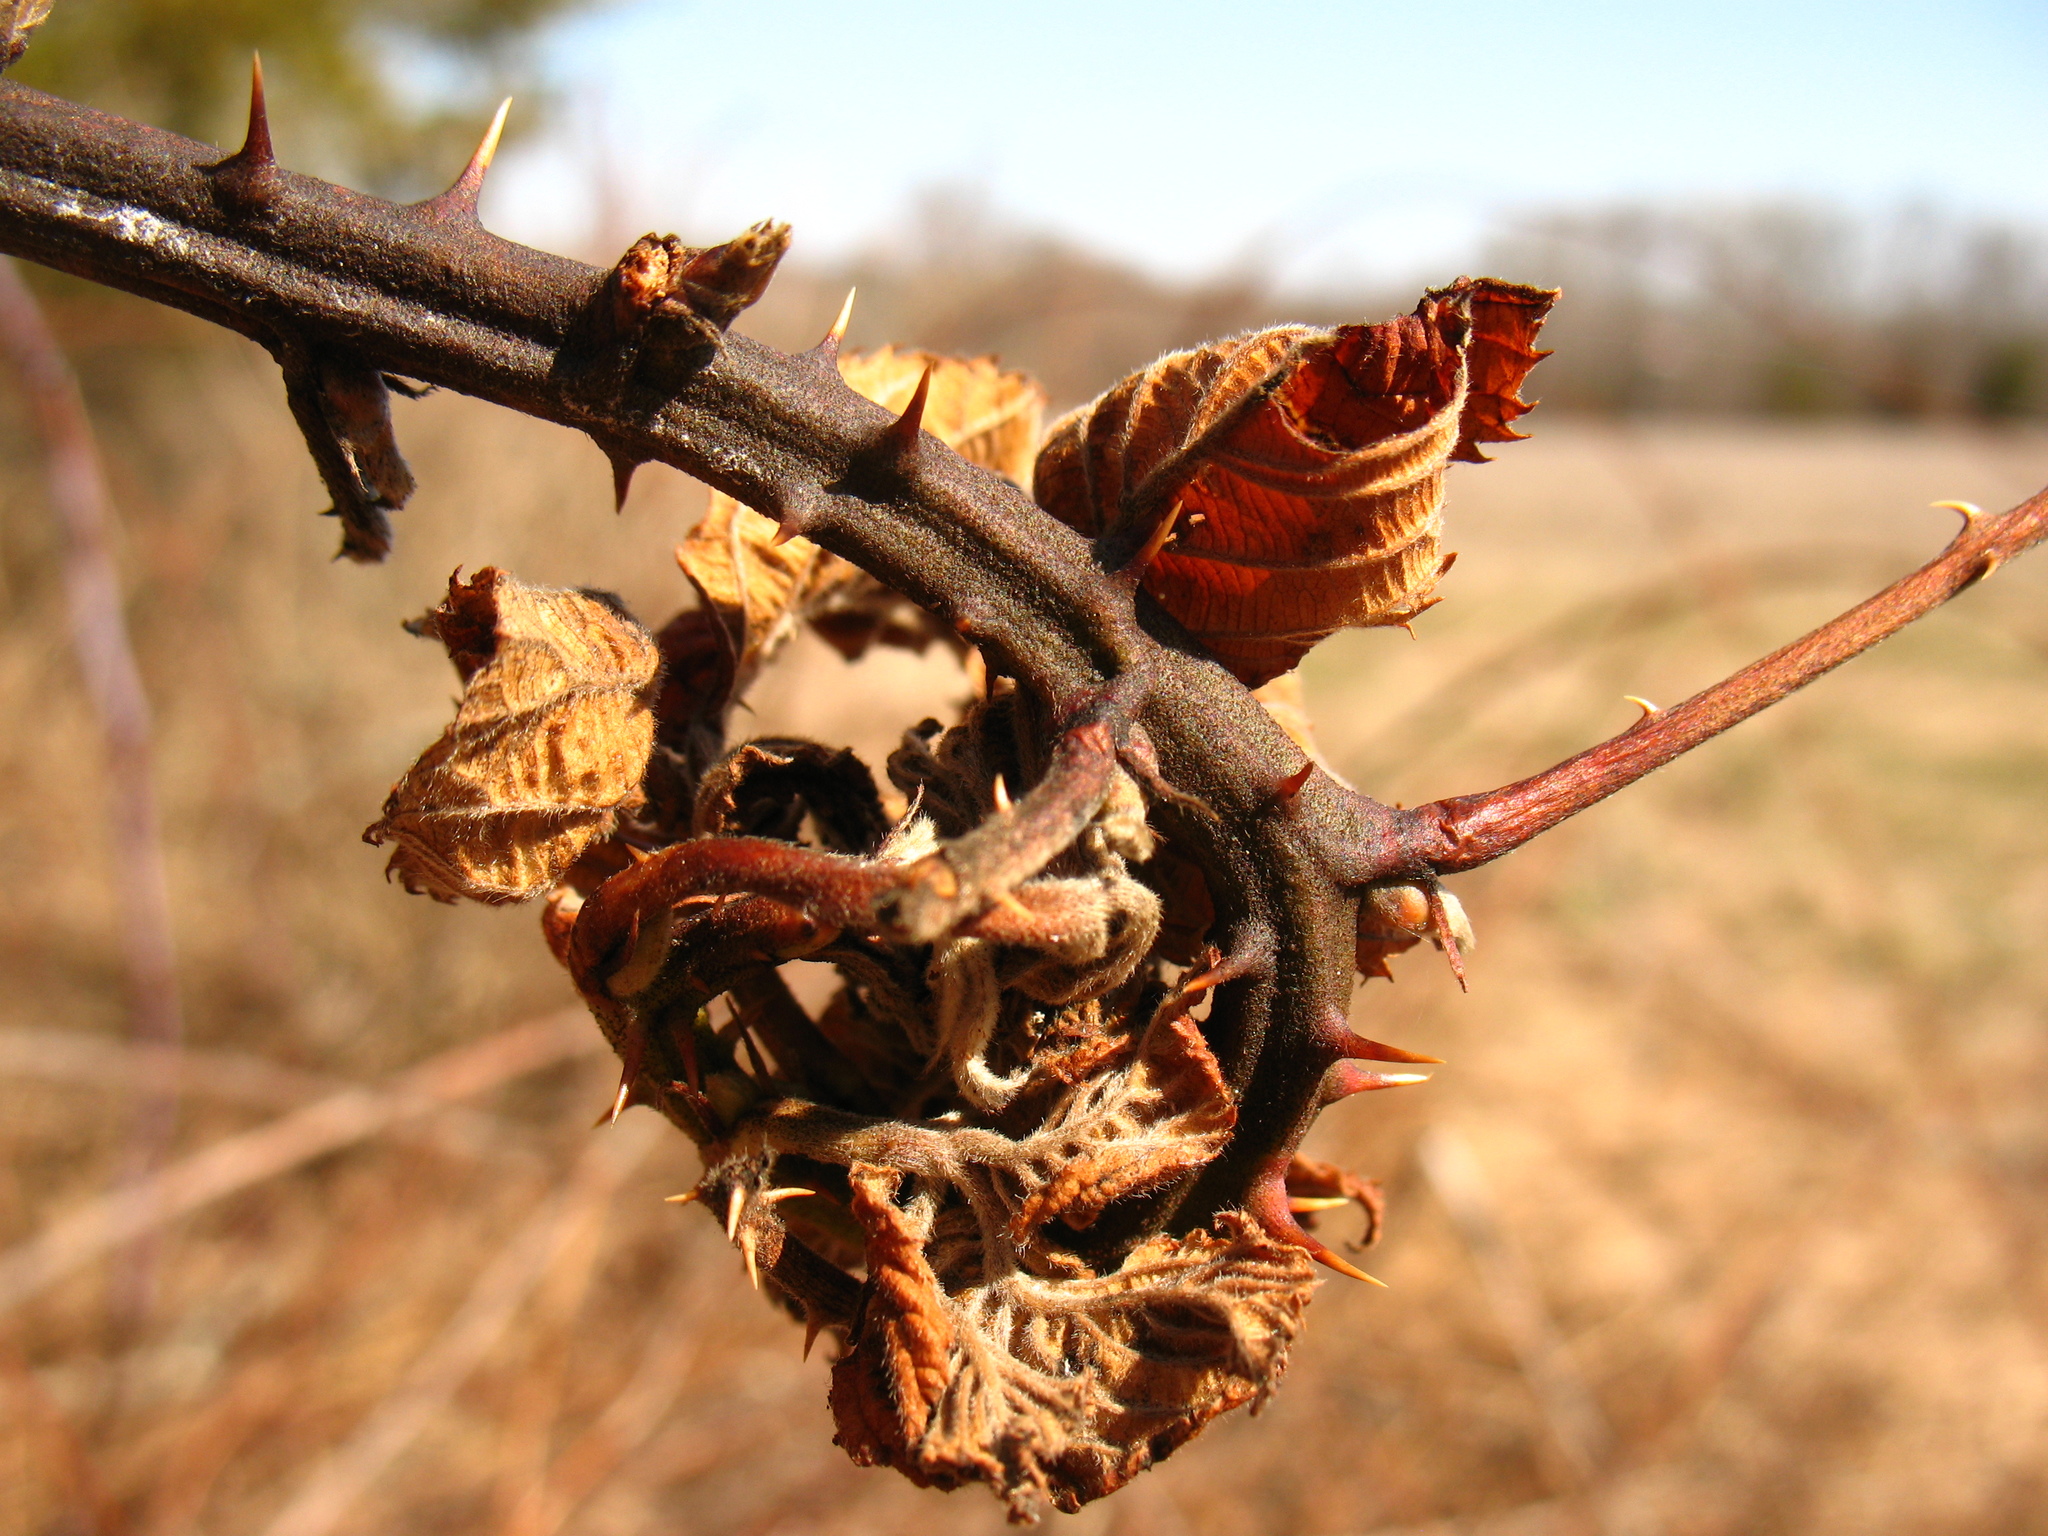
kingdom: Plantae
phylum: Tracheophyta
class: Magnoliopsida
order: Rosales
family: Rosaceae
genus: Rubus
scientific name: Rubus allegheniensis
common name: Allegheny blackberry
